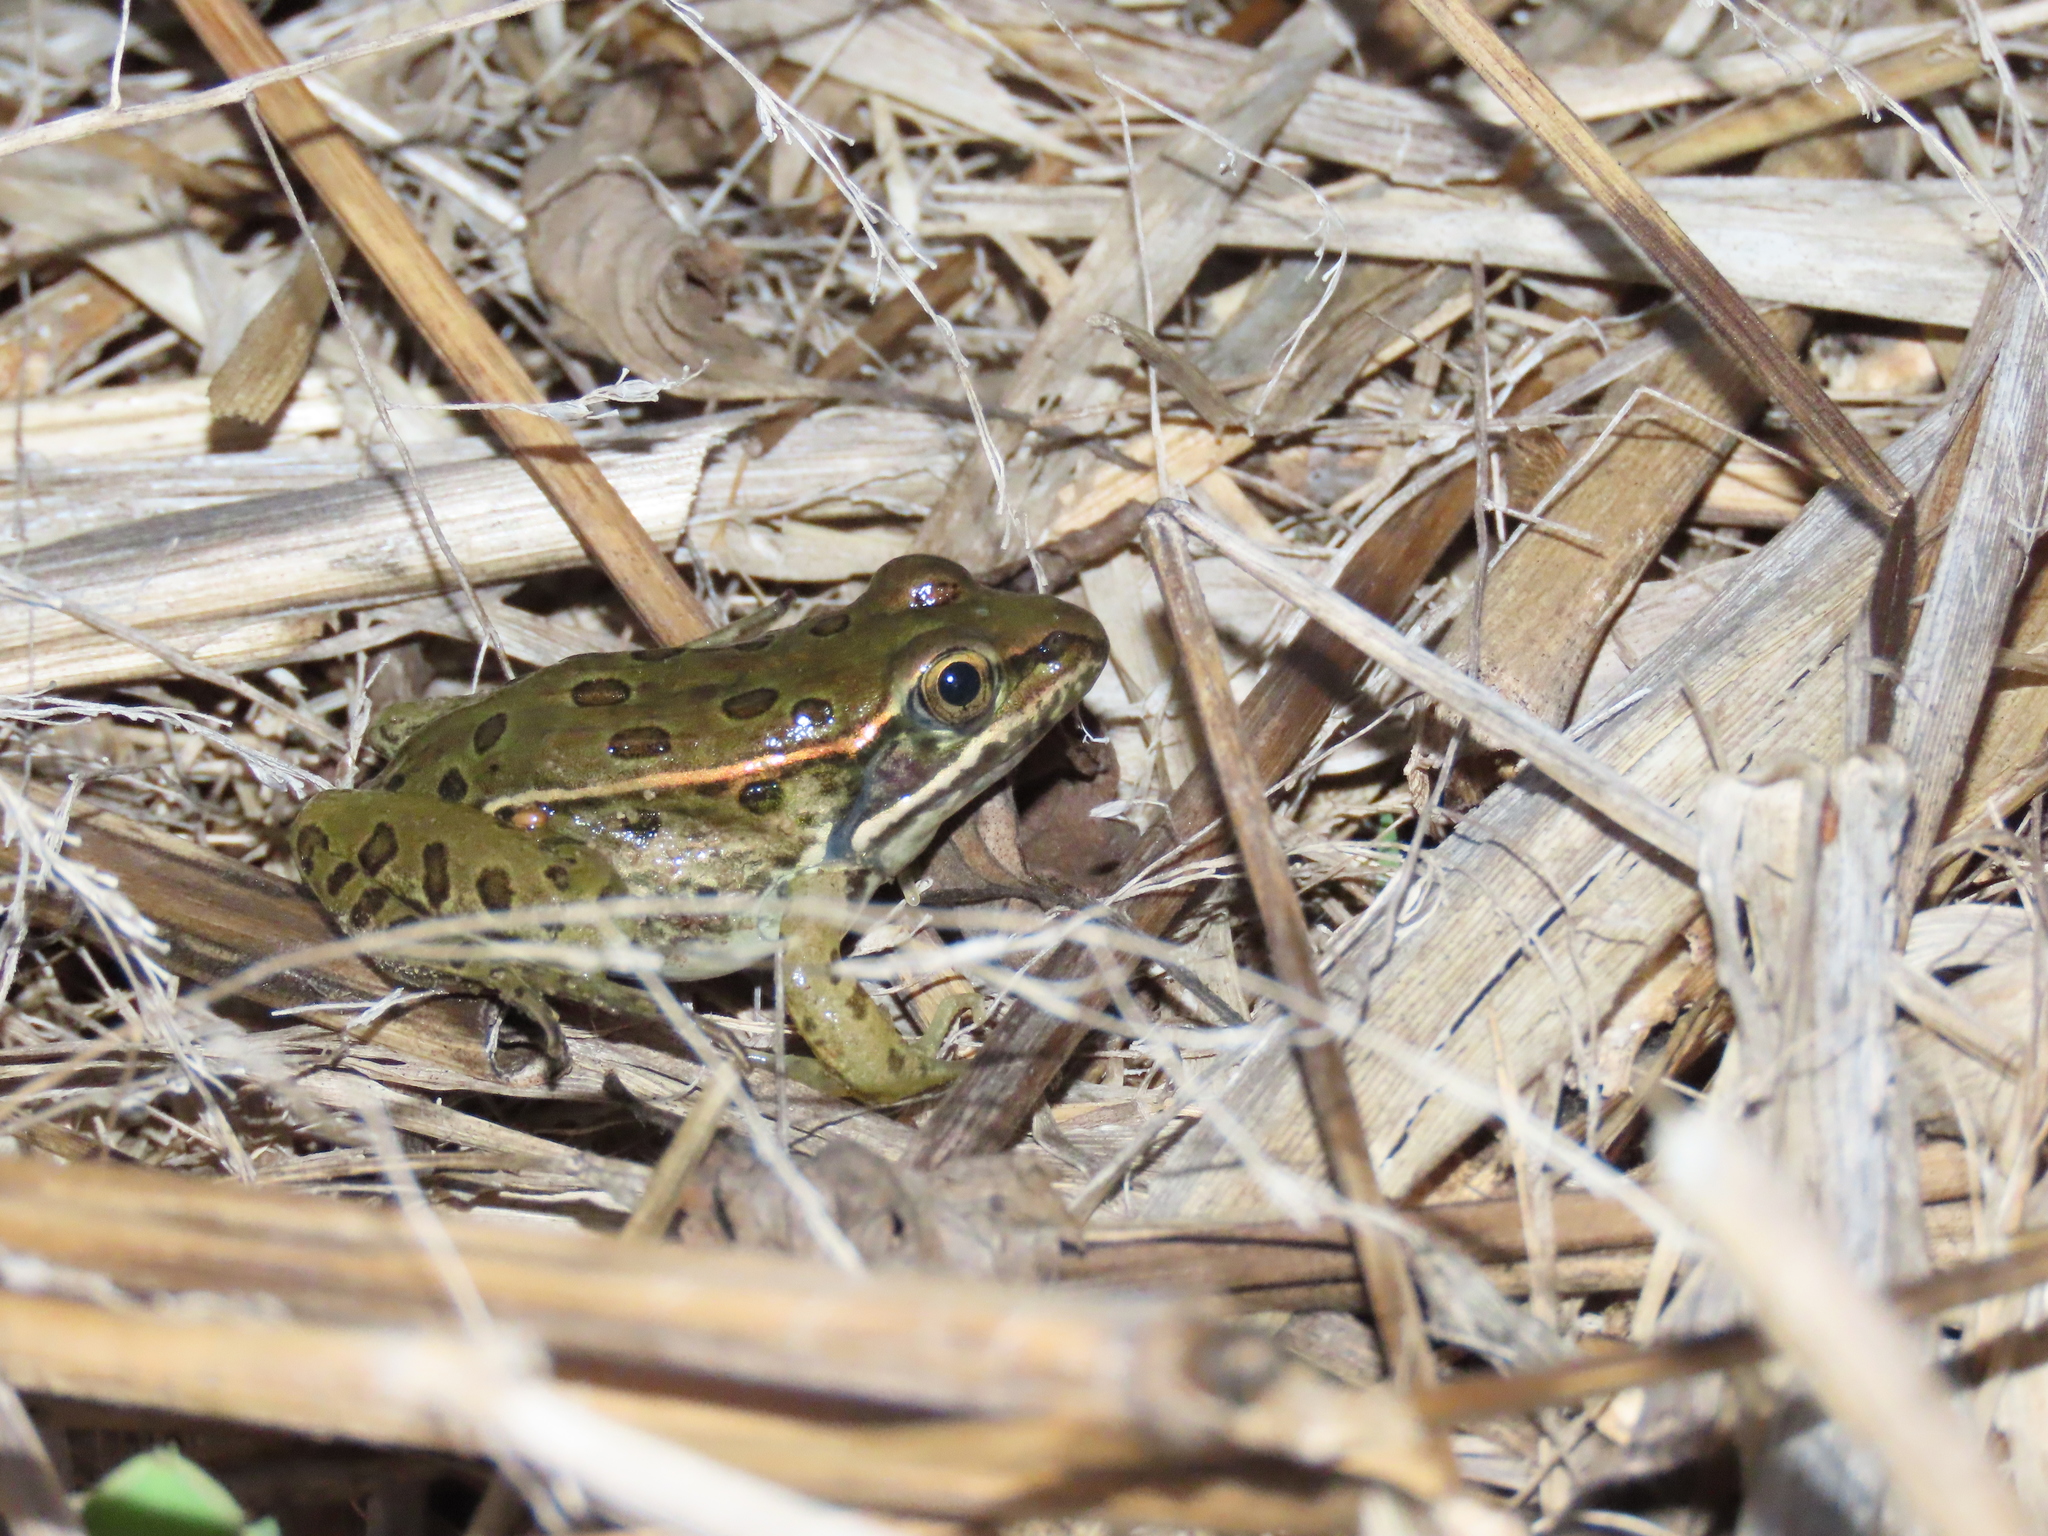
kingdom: Animalia
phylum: Chordata
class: Amphibia
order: Anura
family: Ranidae
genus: Lithobates
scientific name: Lithobates sphenocephalus
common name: Southern leopard frog
